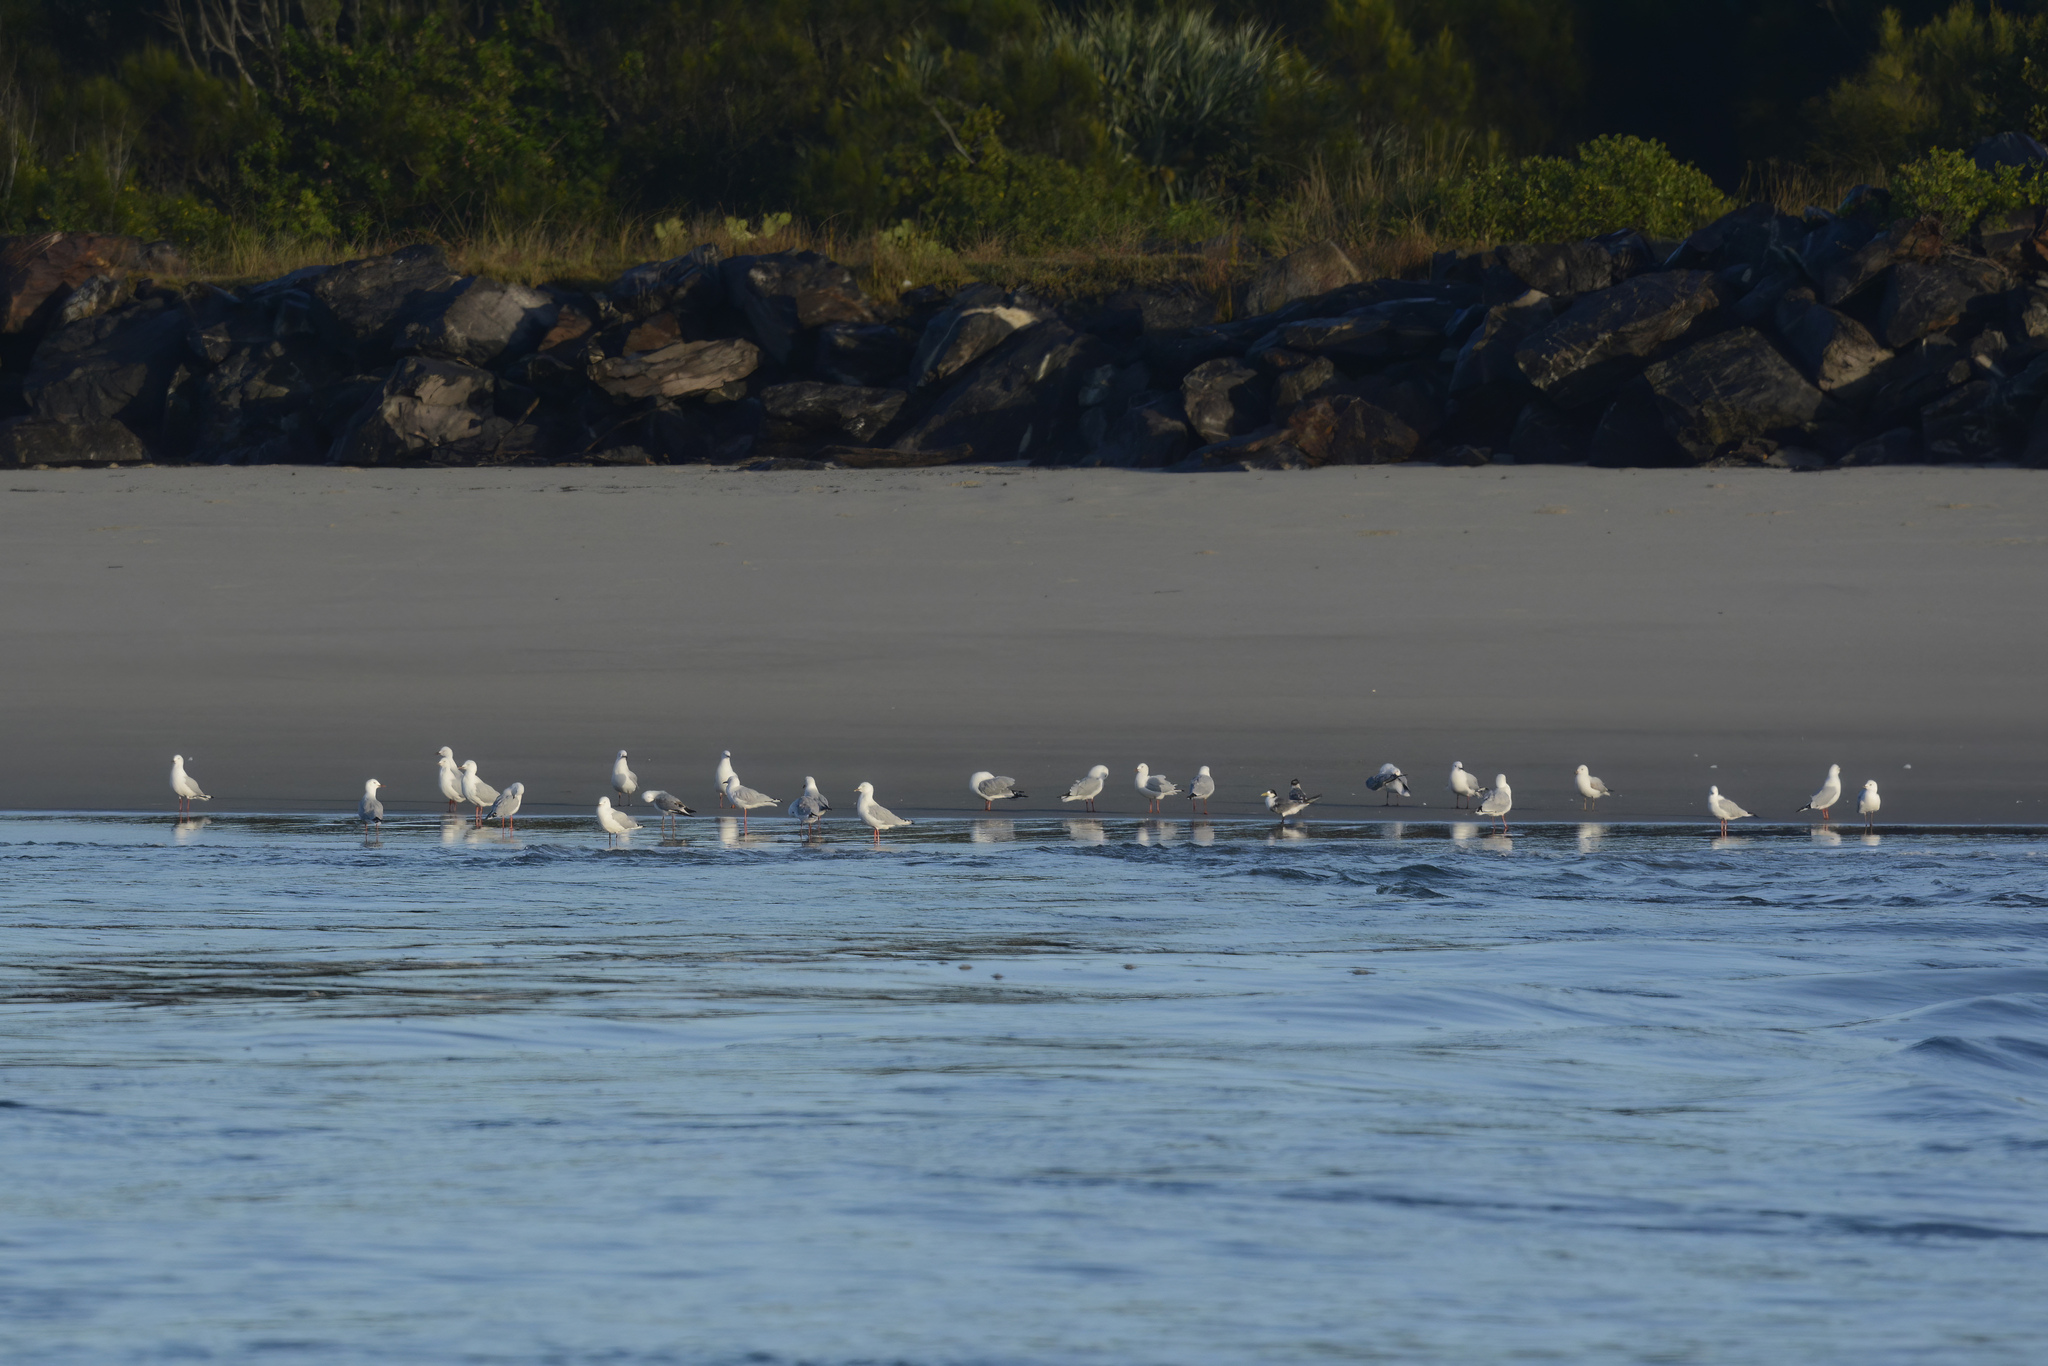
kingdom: Animalia
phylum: Chordata
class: Aves
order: Charadriiformes
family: Laridae
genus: Chroicocephalus
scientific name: Chroicocephalus novaehollandiae
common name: Silver gull
